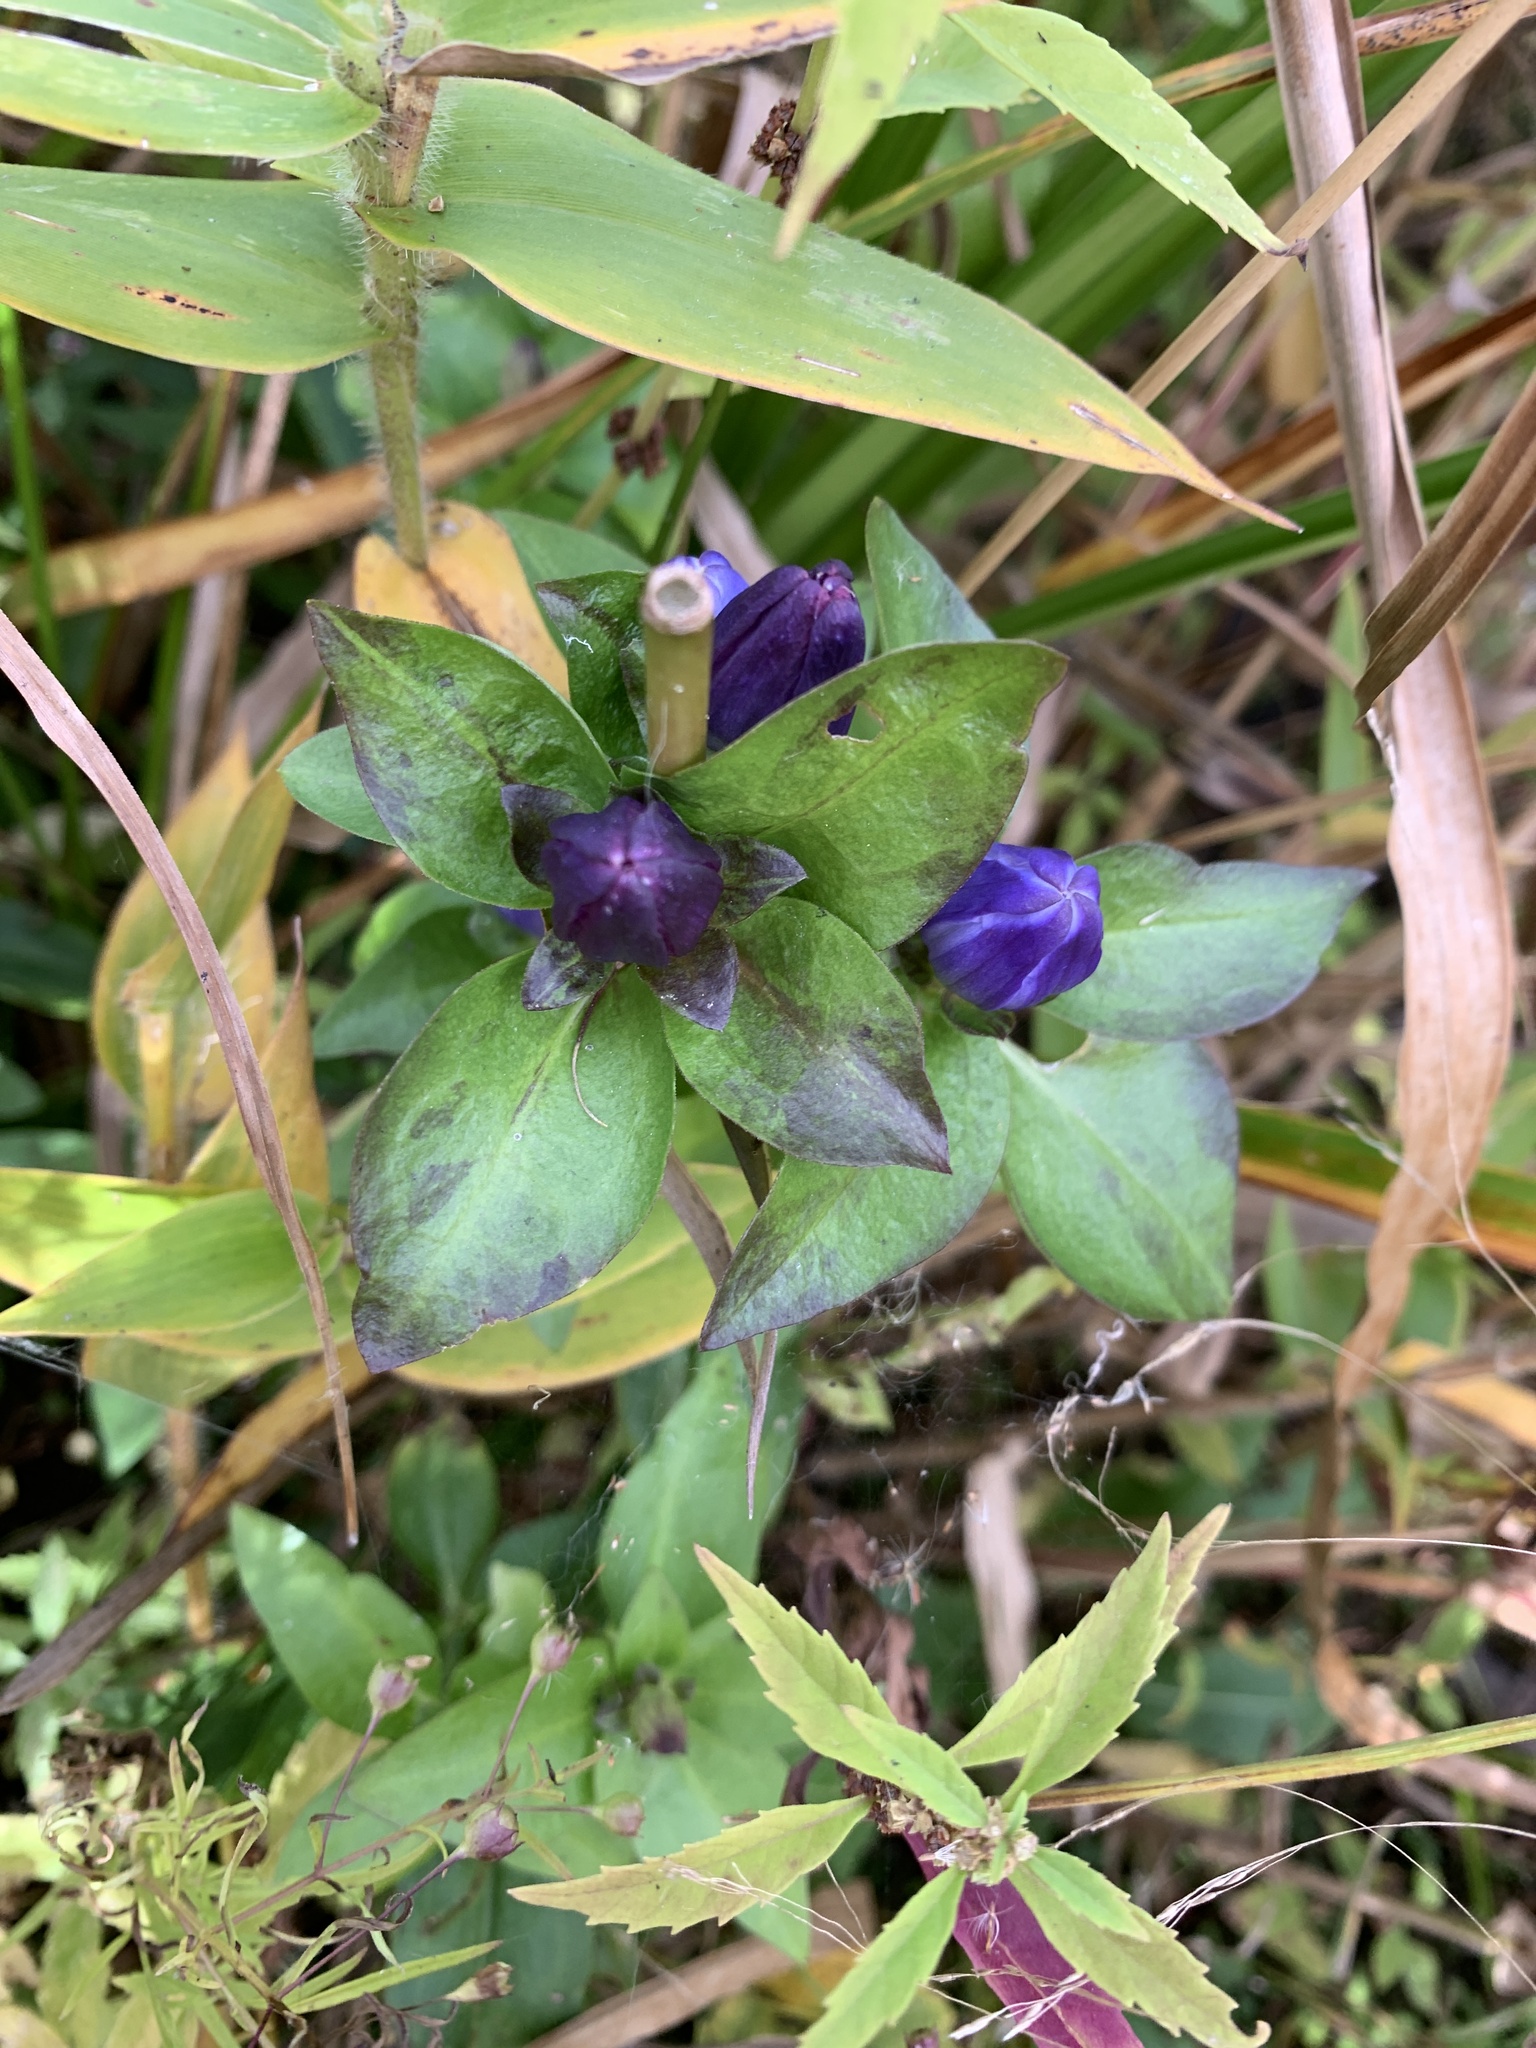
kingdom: Plantae
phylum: Tracheophyta
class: Magnoliopsida
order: Gentianales
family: Gentianaceae
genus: Gentiana
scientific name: Gentiana clausa
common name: Blind gentian
